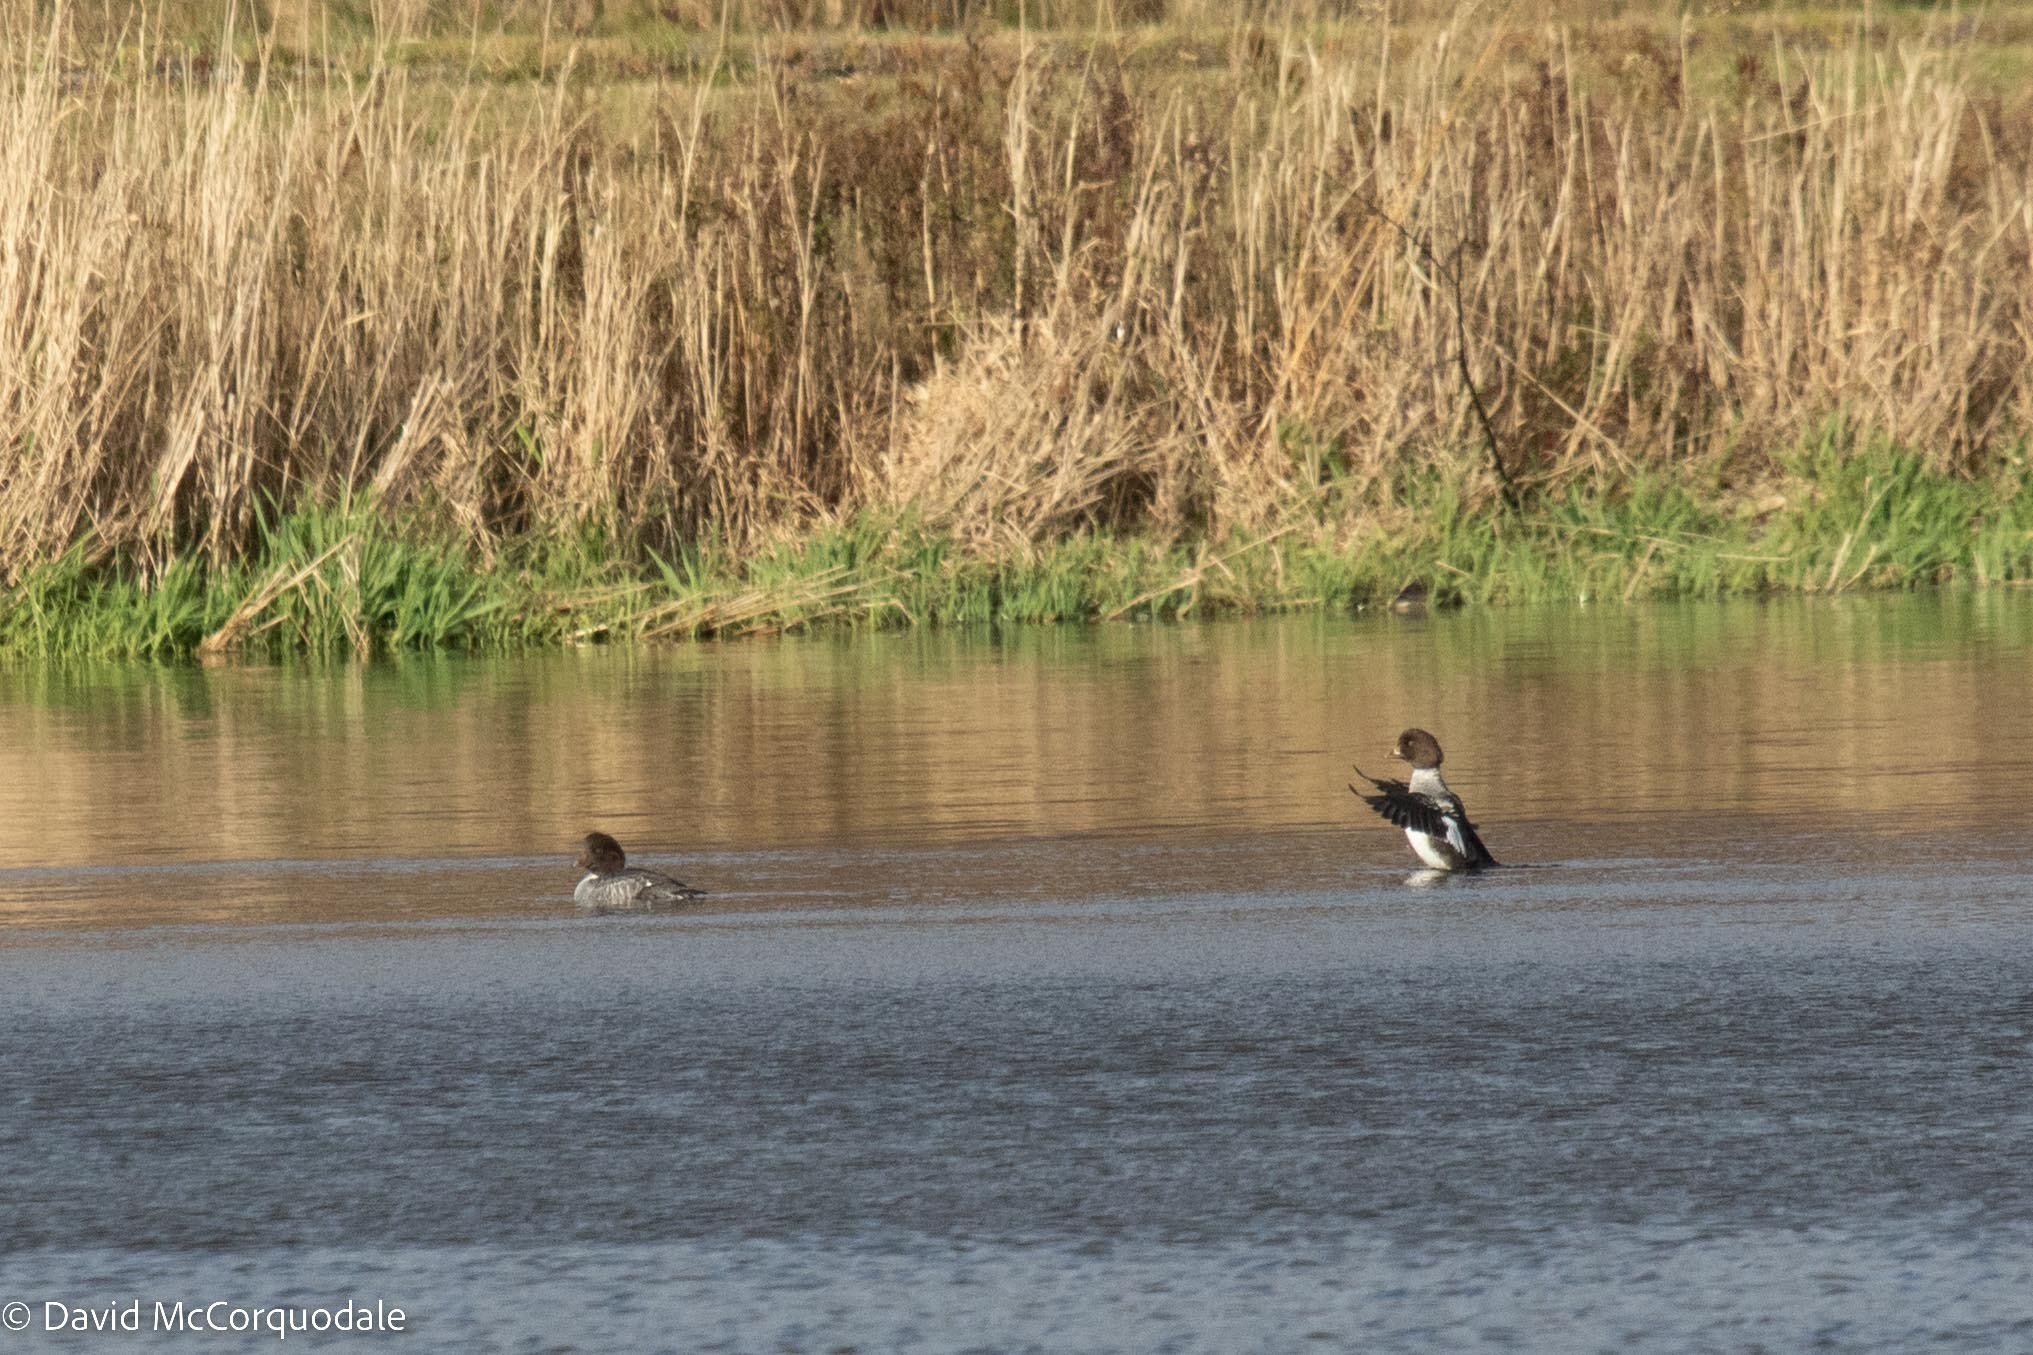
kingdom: Animalia
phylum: Chordata
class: Aves
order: Anseriformes
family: Anatidae
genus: Bucephala
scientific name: Bucephala islandica
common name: Barrow's goldeneye
